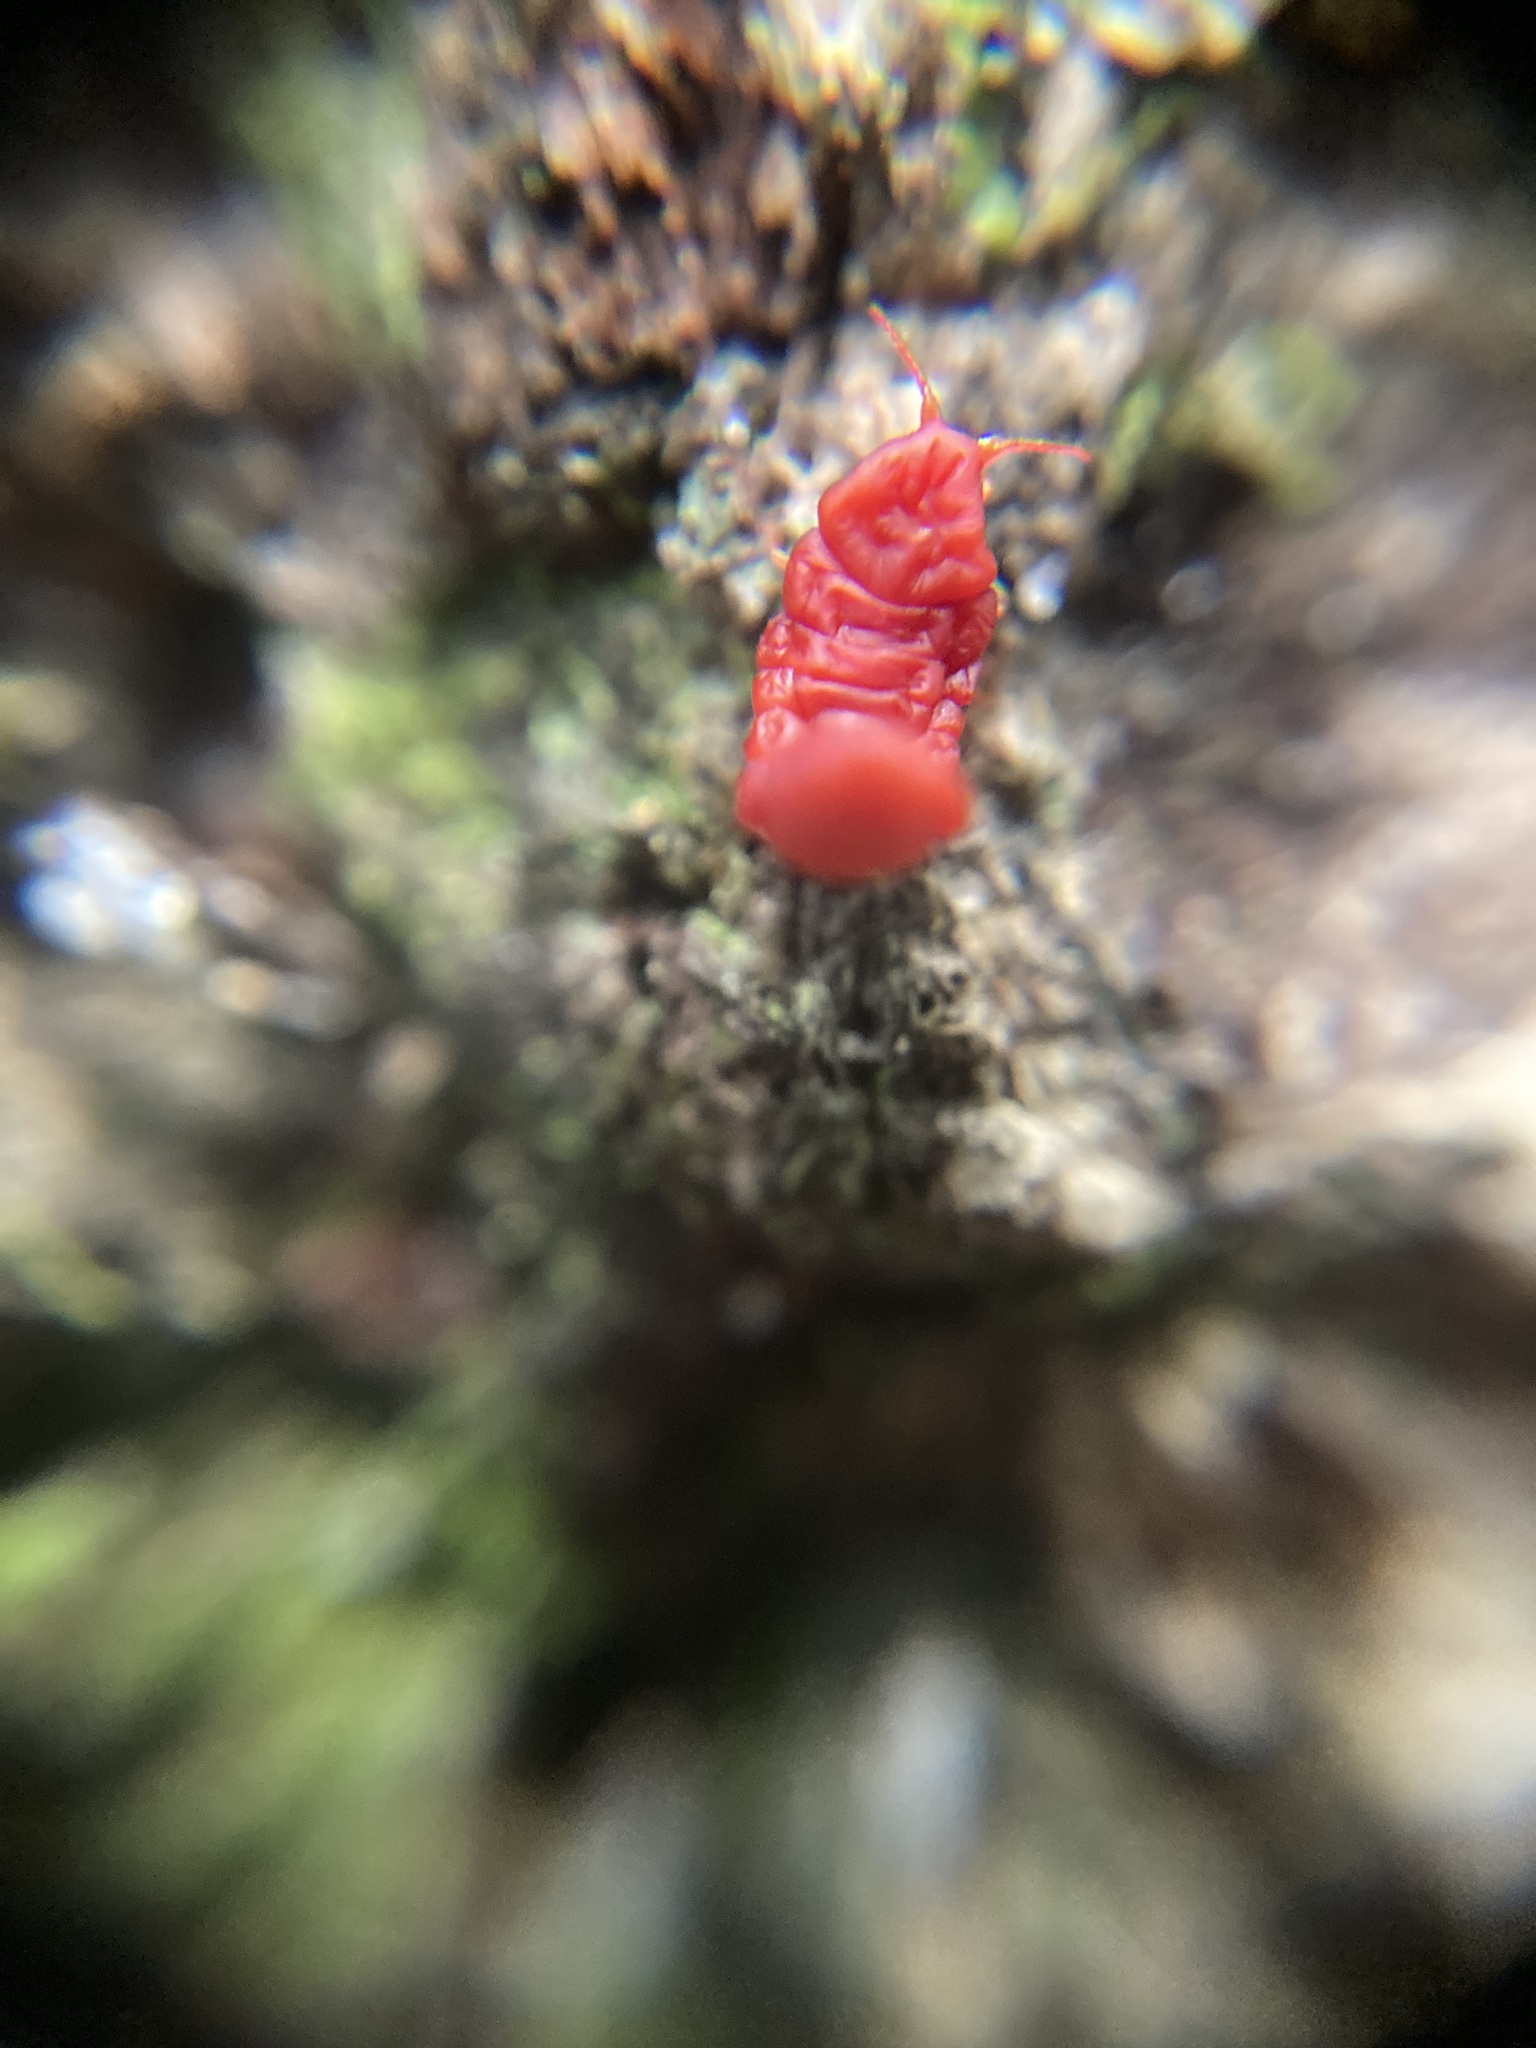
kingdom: Animalia
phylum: Arthropoda
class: Insecta
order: Hemiptera
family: Margarodidae
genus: Neosteingelia
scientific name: Neosteingelia texana
